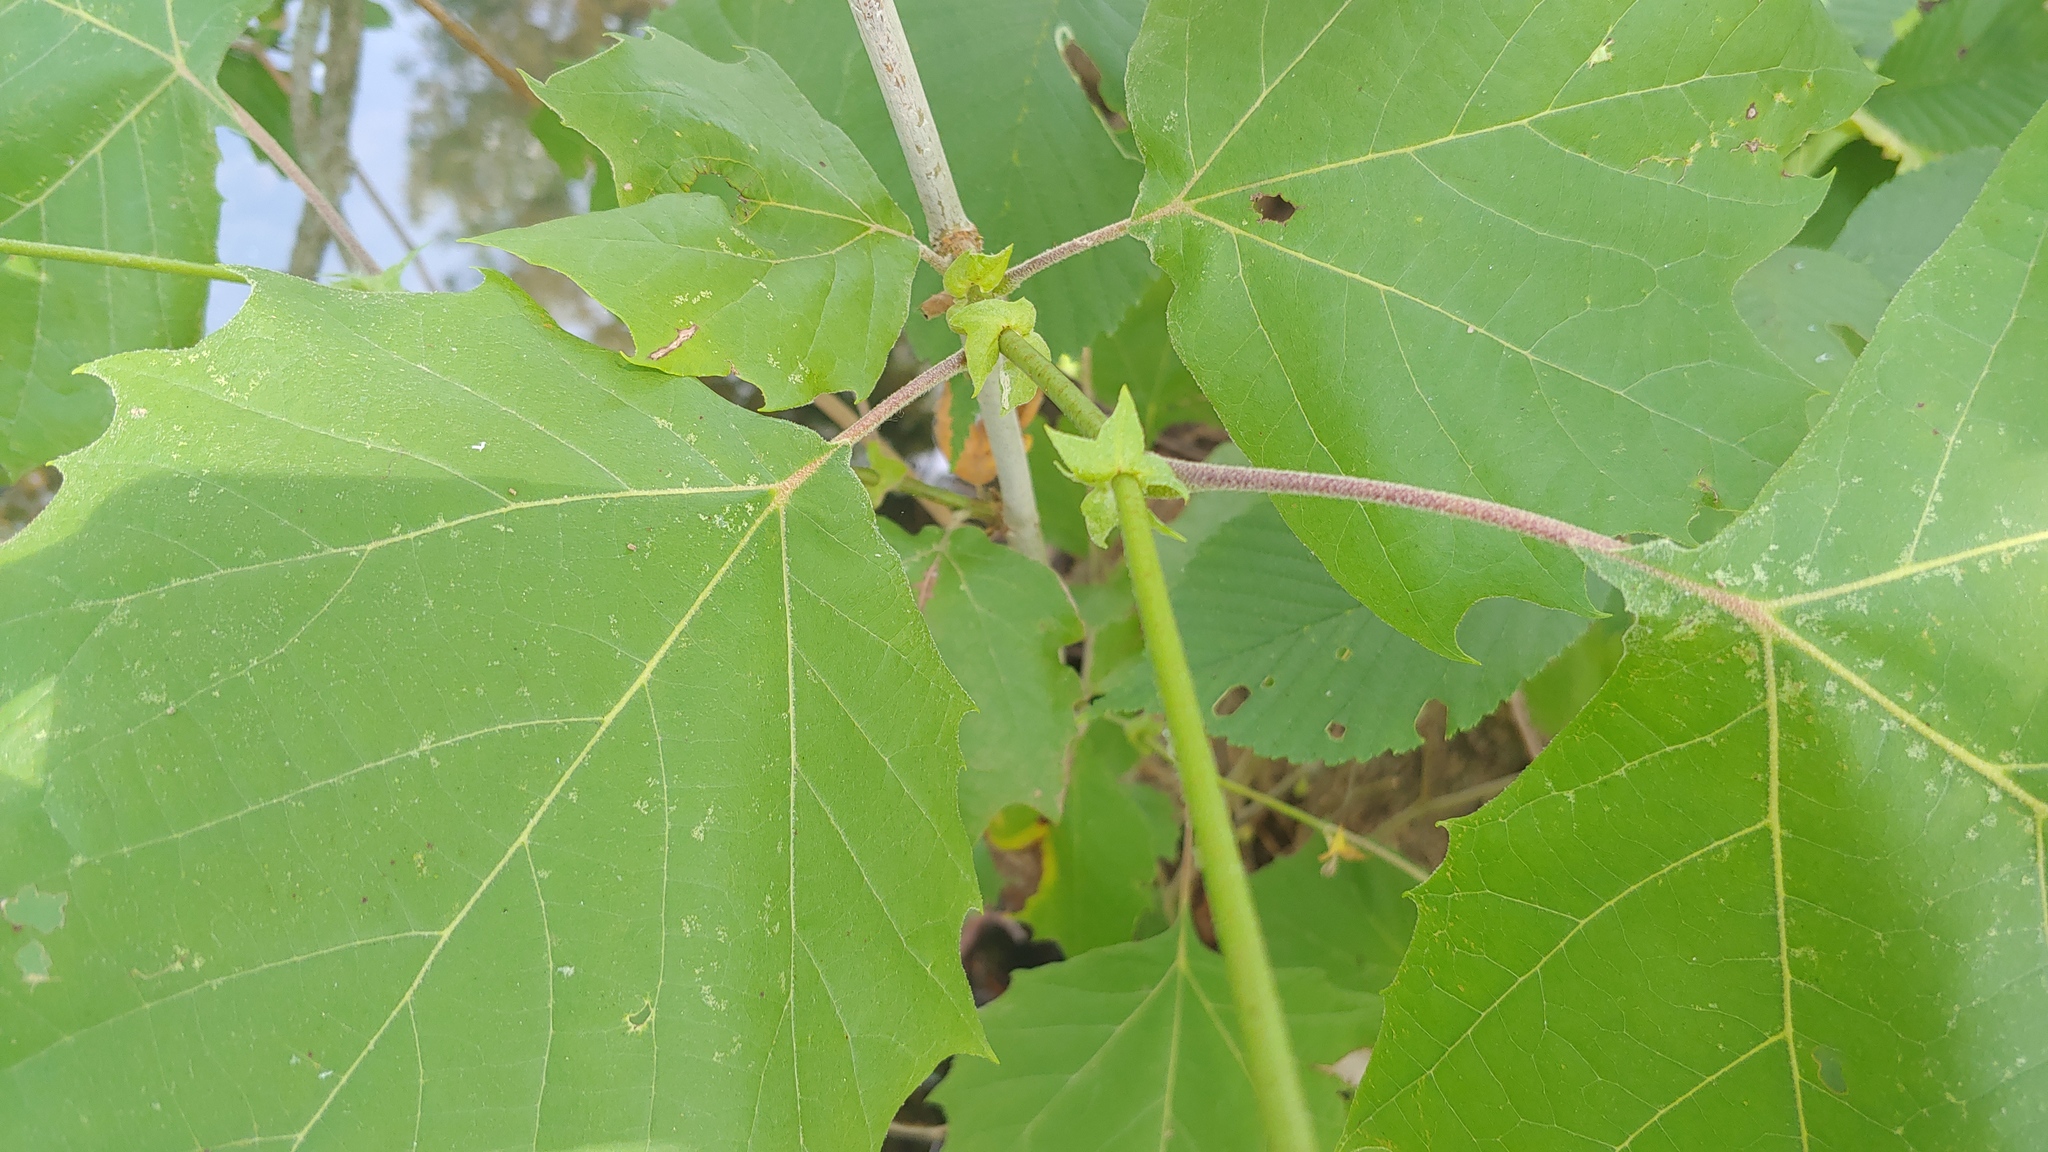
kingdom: Plantae
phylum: Tracheophyta
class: Magnoliopsida
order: Proteales
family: Platanaceae
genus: Platanus
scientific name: Platanus occidentalis
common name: American sycamore
